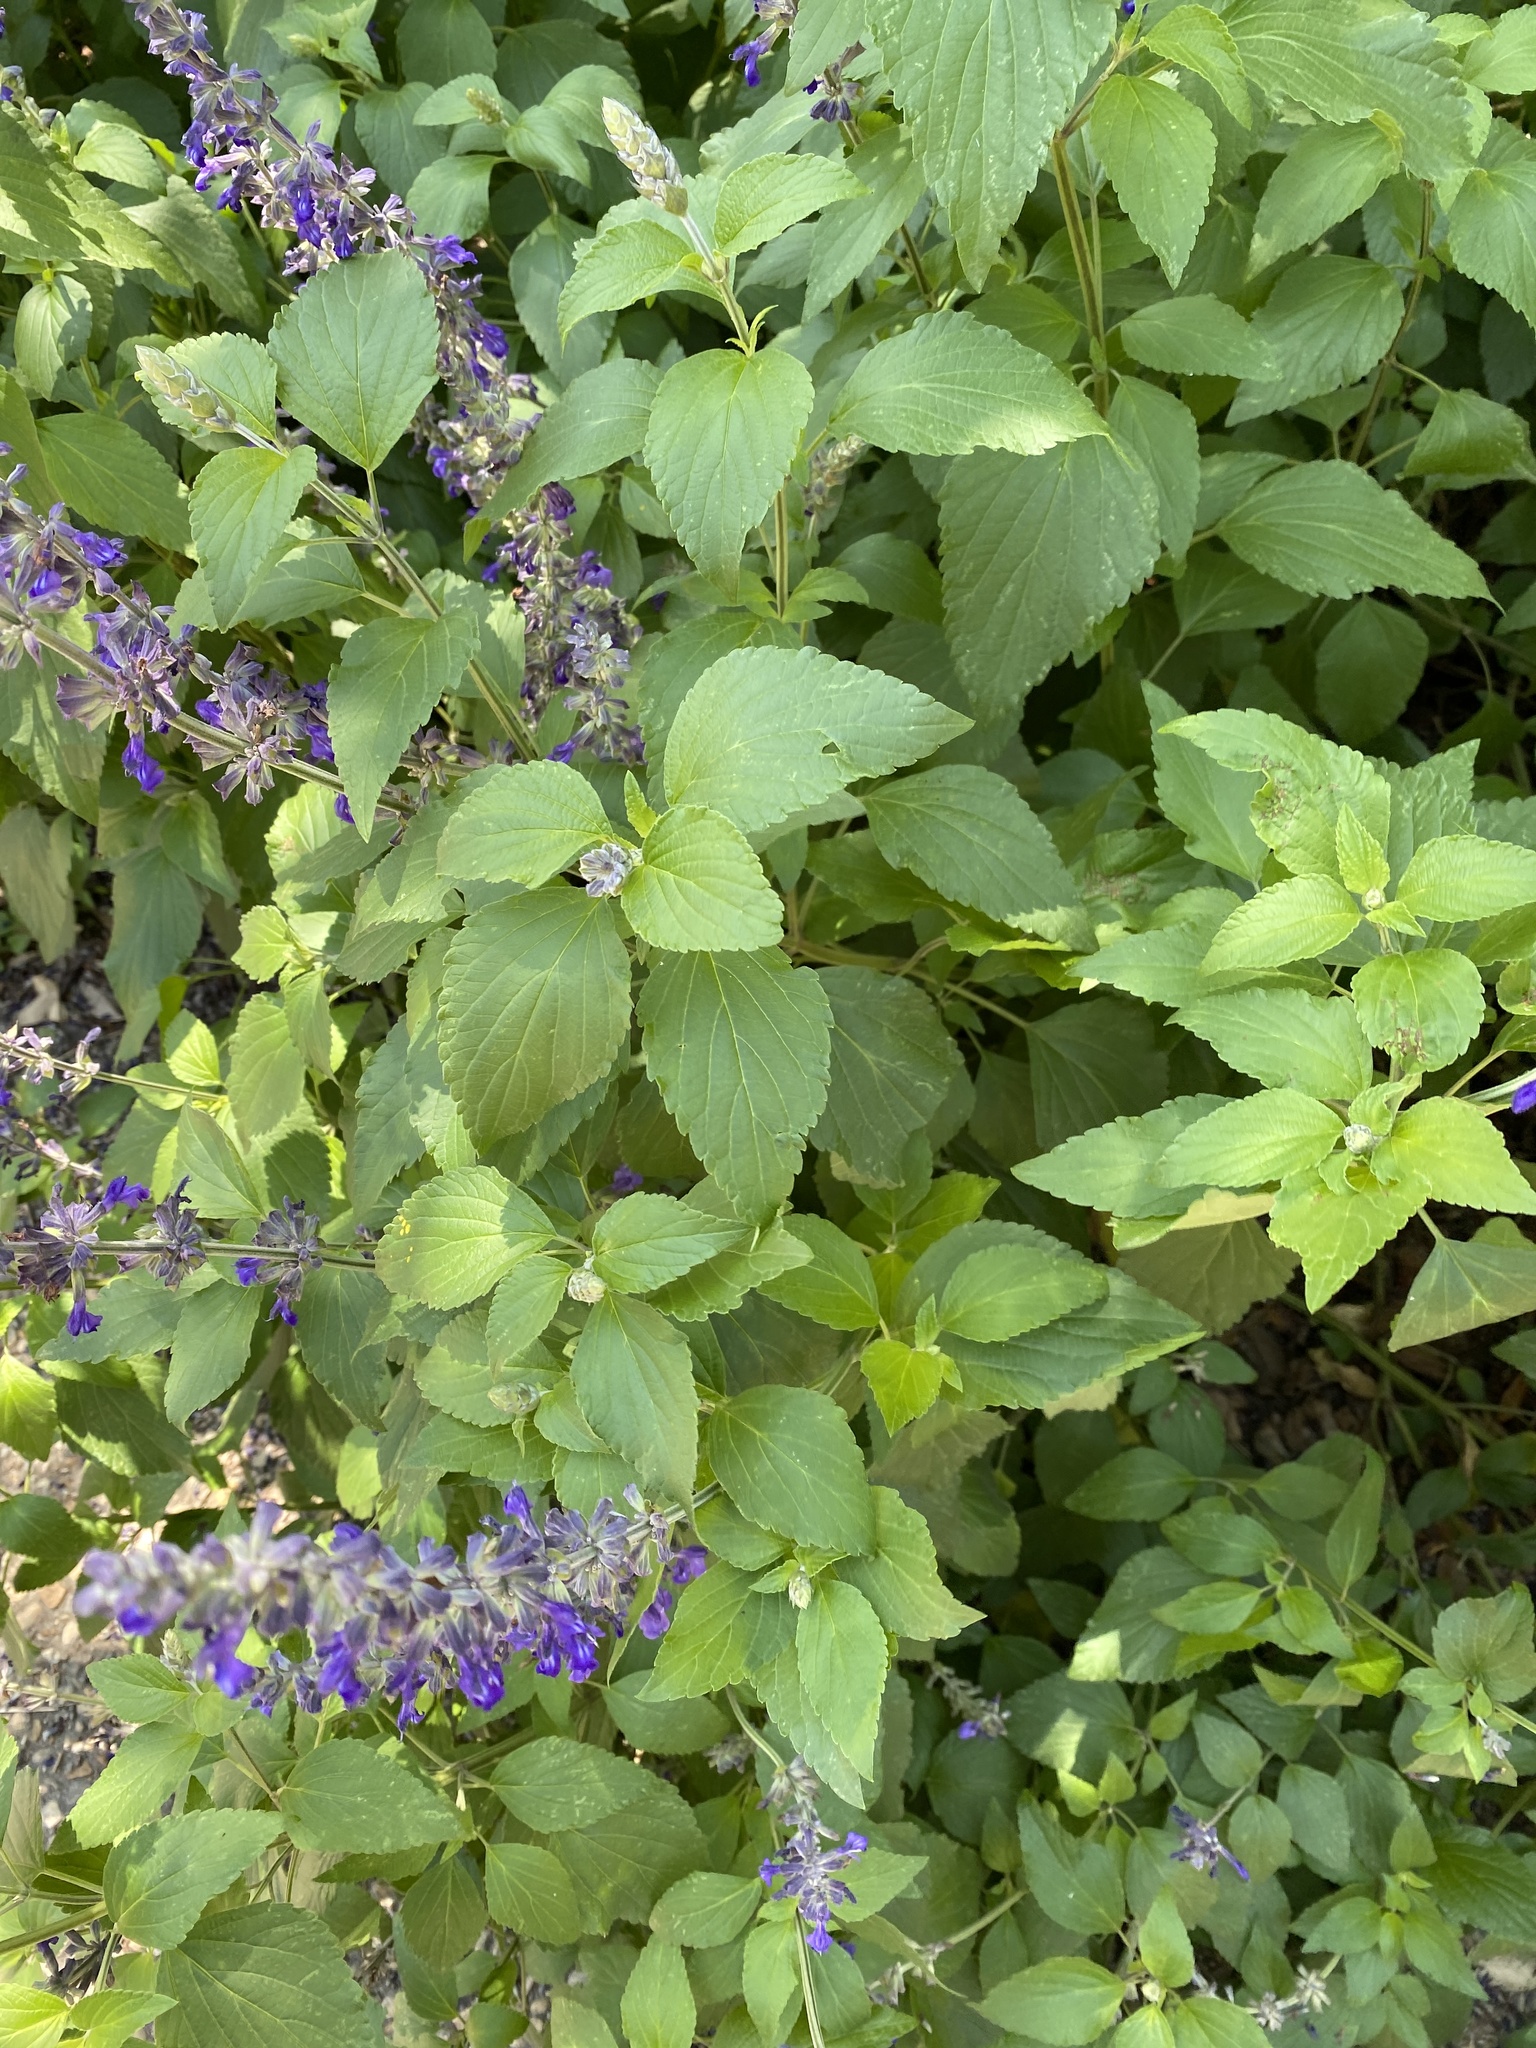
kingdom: Plantae
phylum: Tracheophyta
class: Magnoliopsida
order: Lamiales
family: Lamiaceae
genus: Salvia
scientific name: Salvia farinacea
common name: Mealy sage
